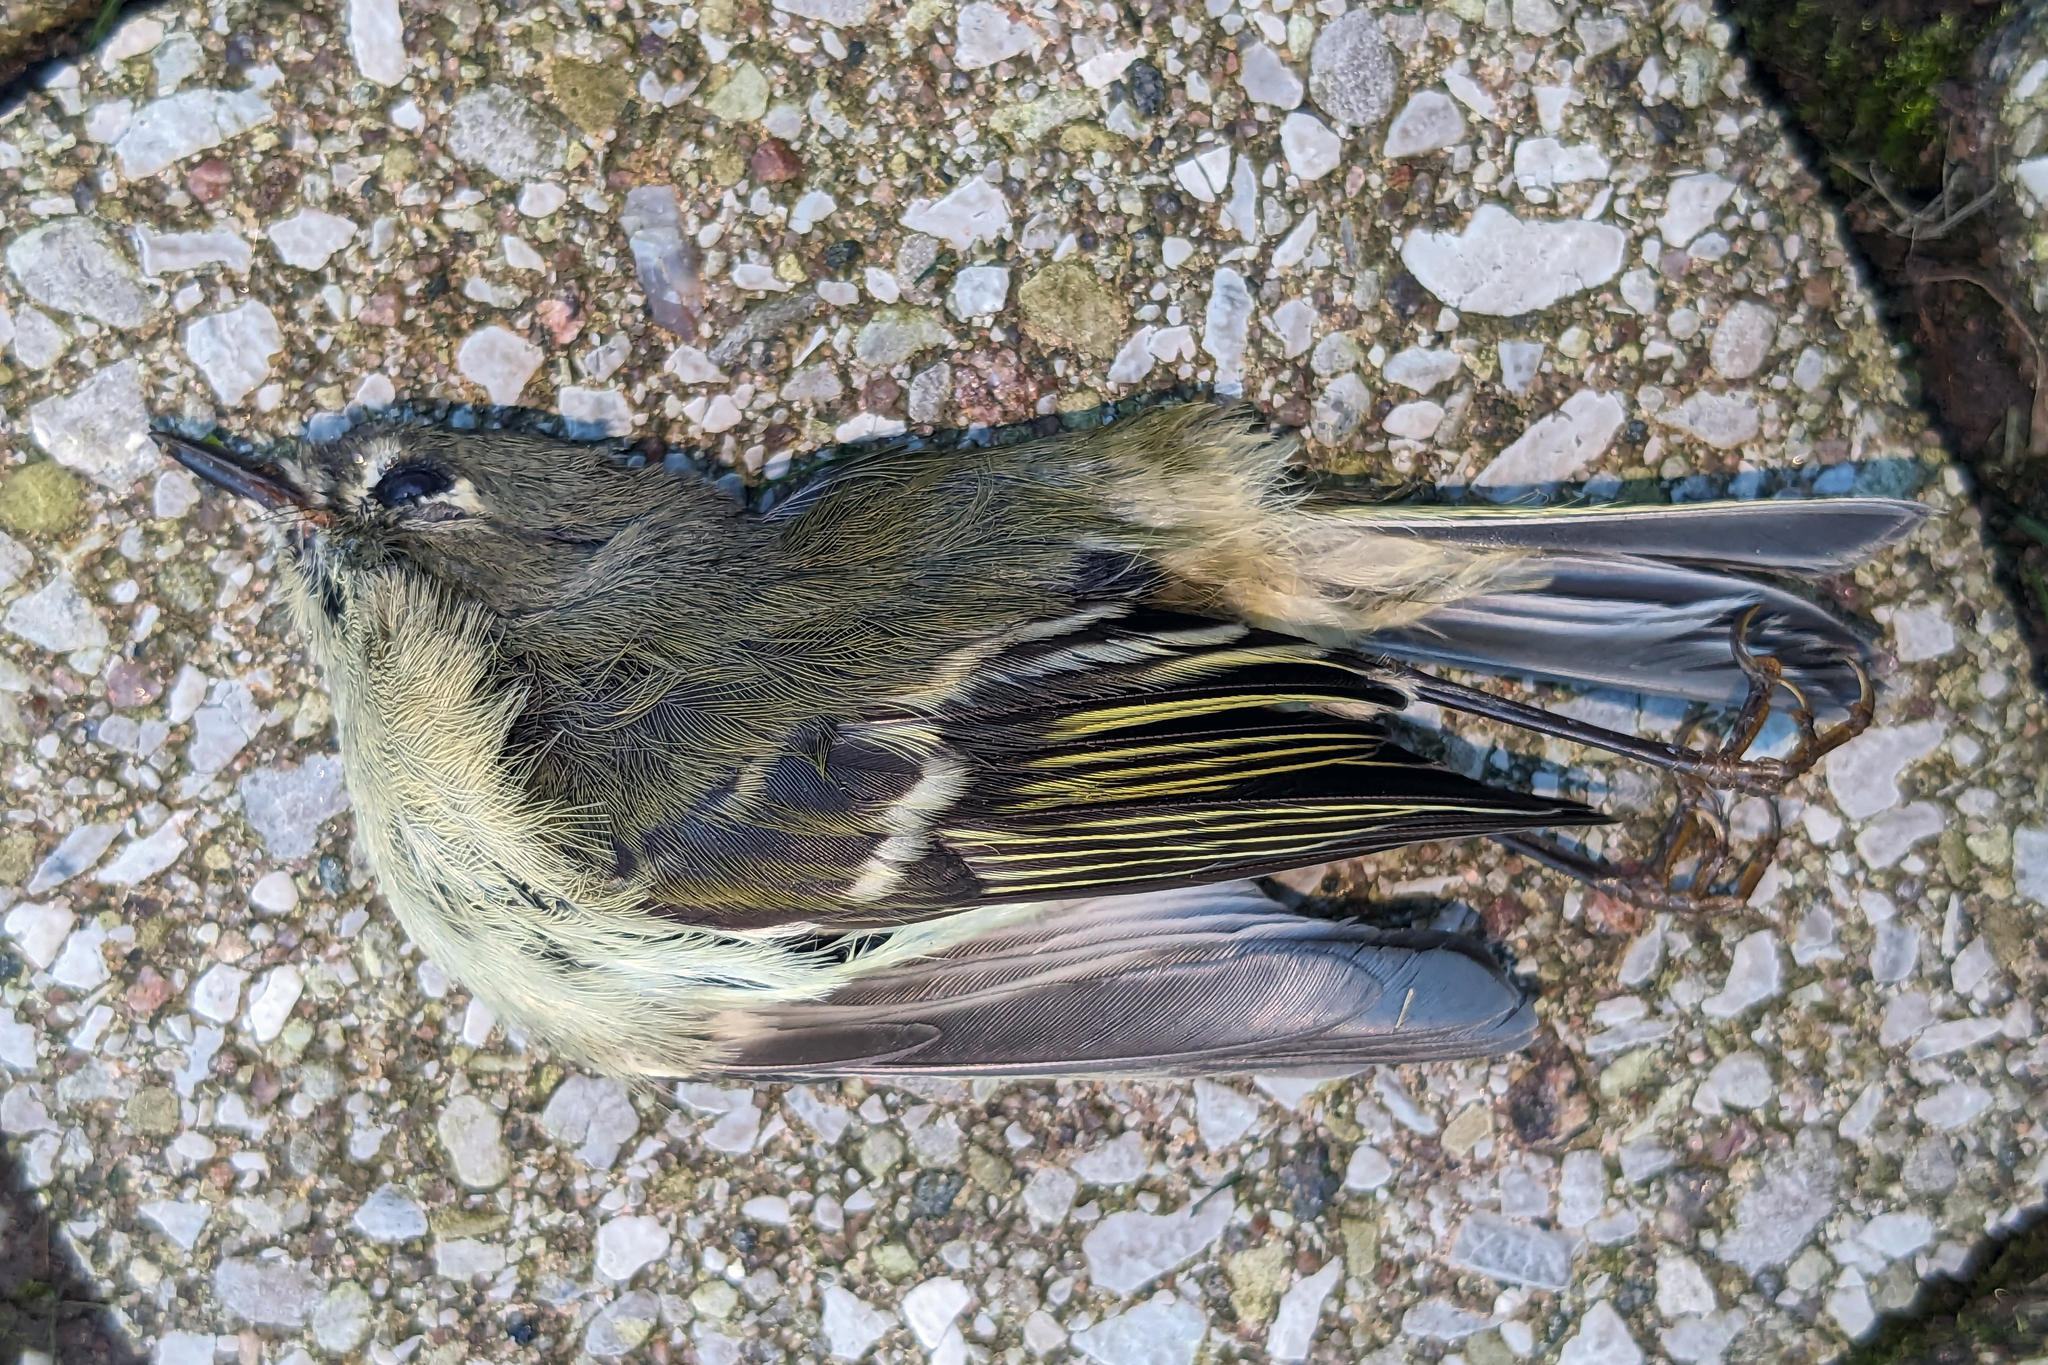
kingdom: Animalia
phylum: Chordata
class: Aves
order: Passeriformes
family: Regulidae
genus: Regulus
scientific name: Regulus calendula
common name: Ruby-crowned kinglet
